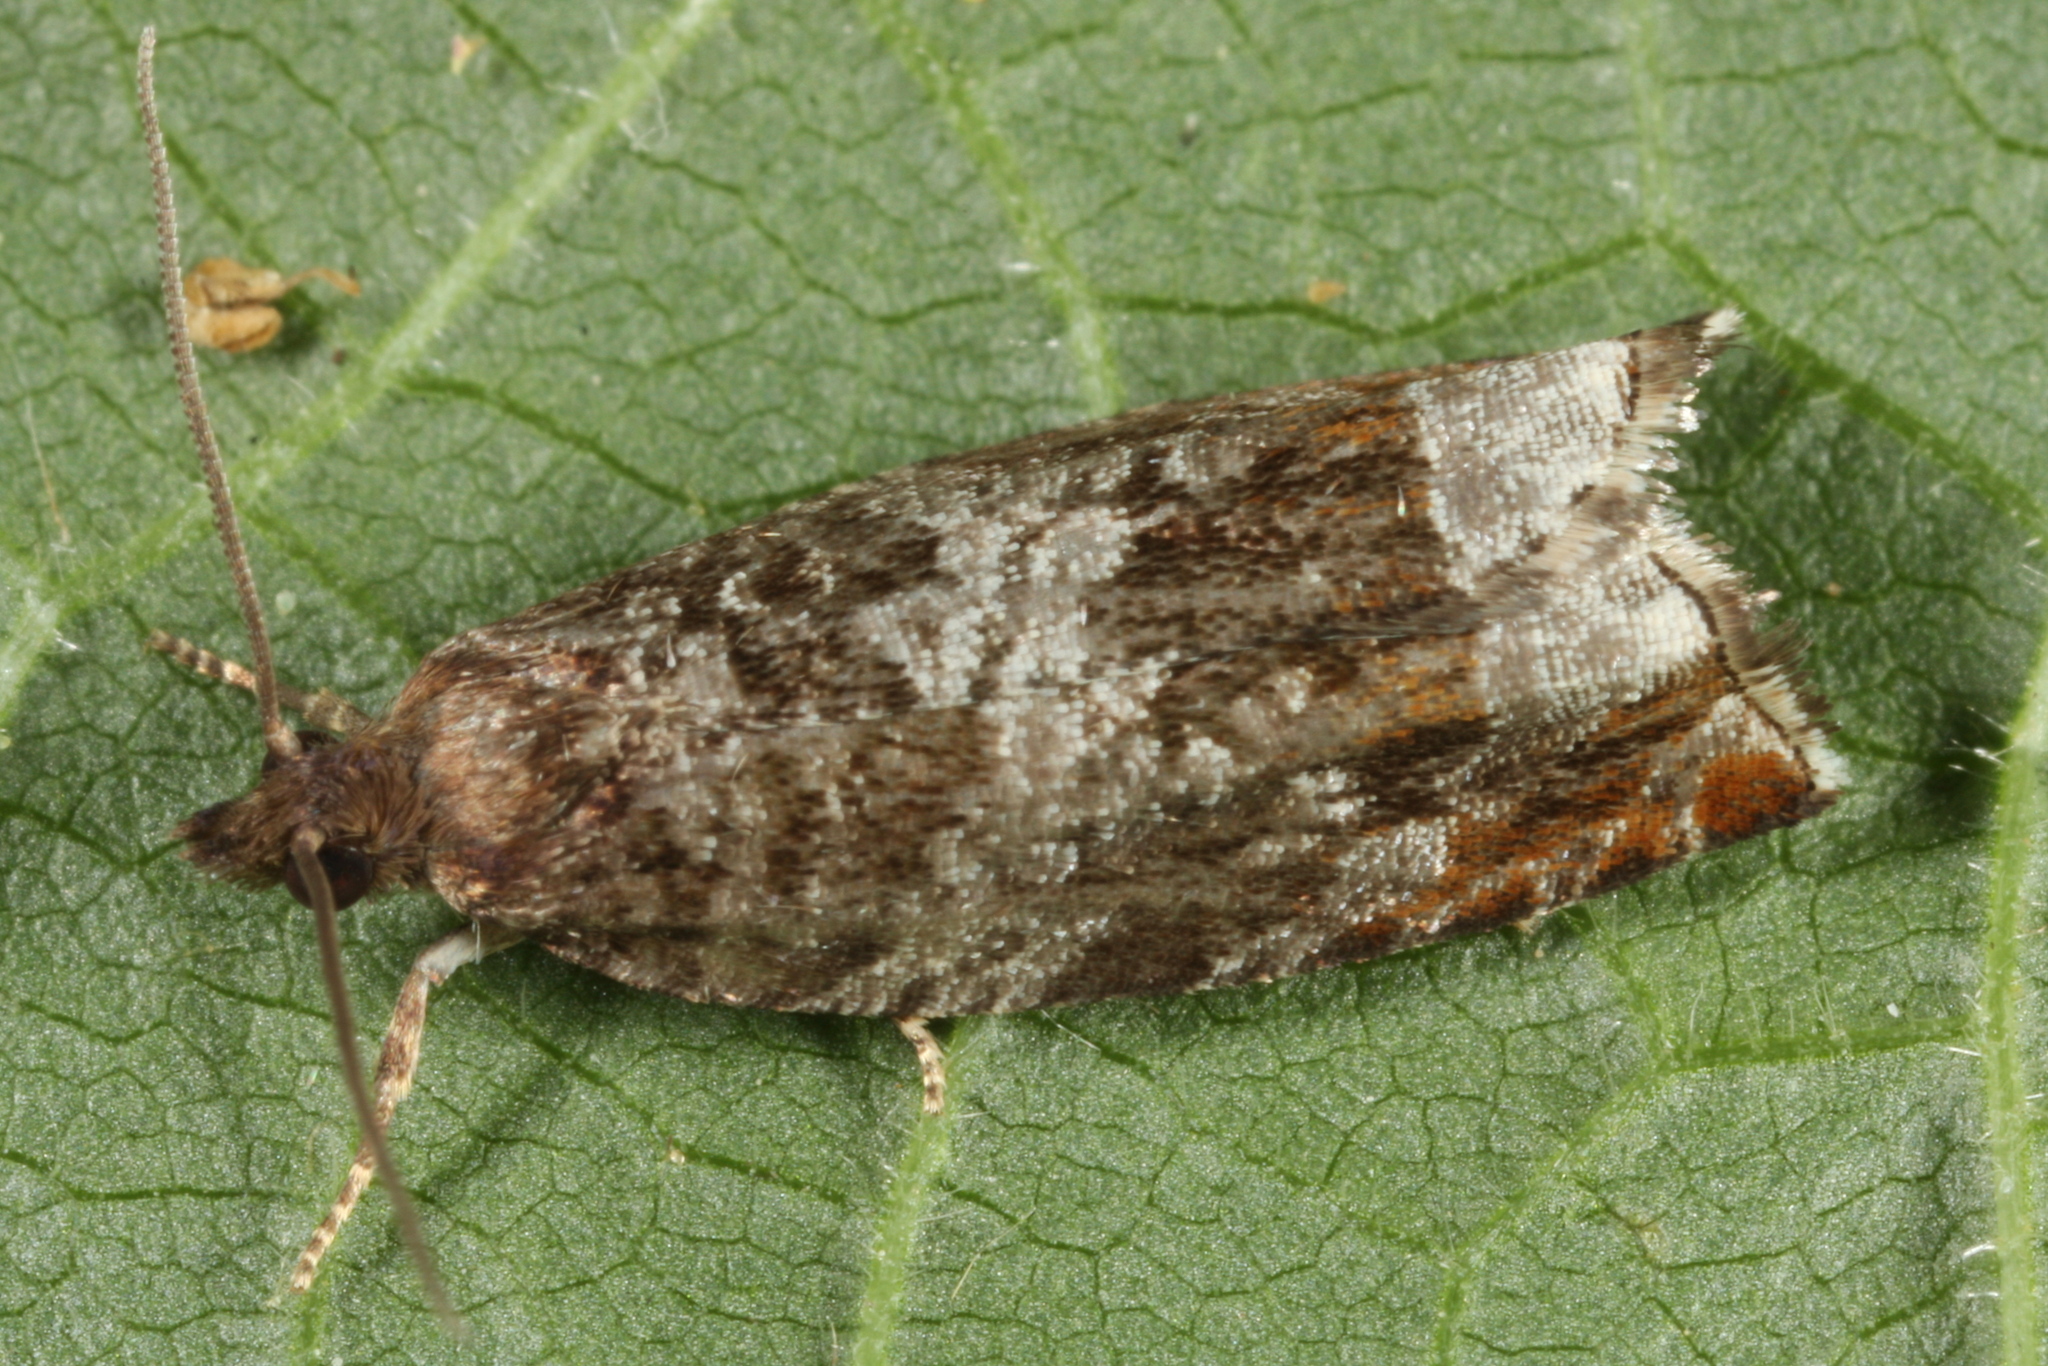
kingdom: Animalia
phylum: Arthropoda
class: Insecta
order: Lepidoptera
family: Tortricidae
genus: Ancylis
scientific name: Ancylis achatana
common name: Triangle-marked roller
